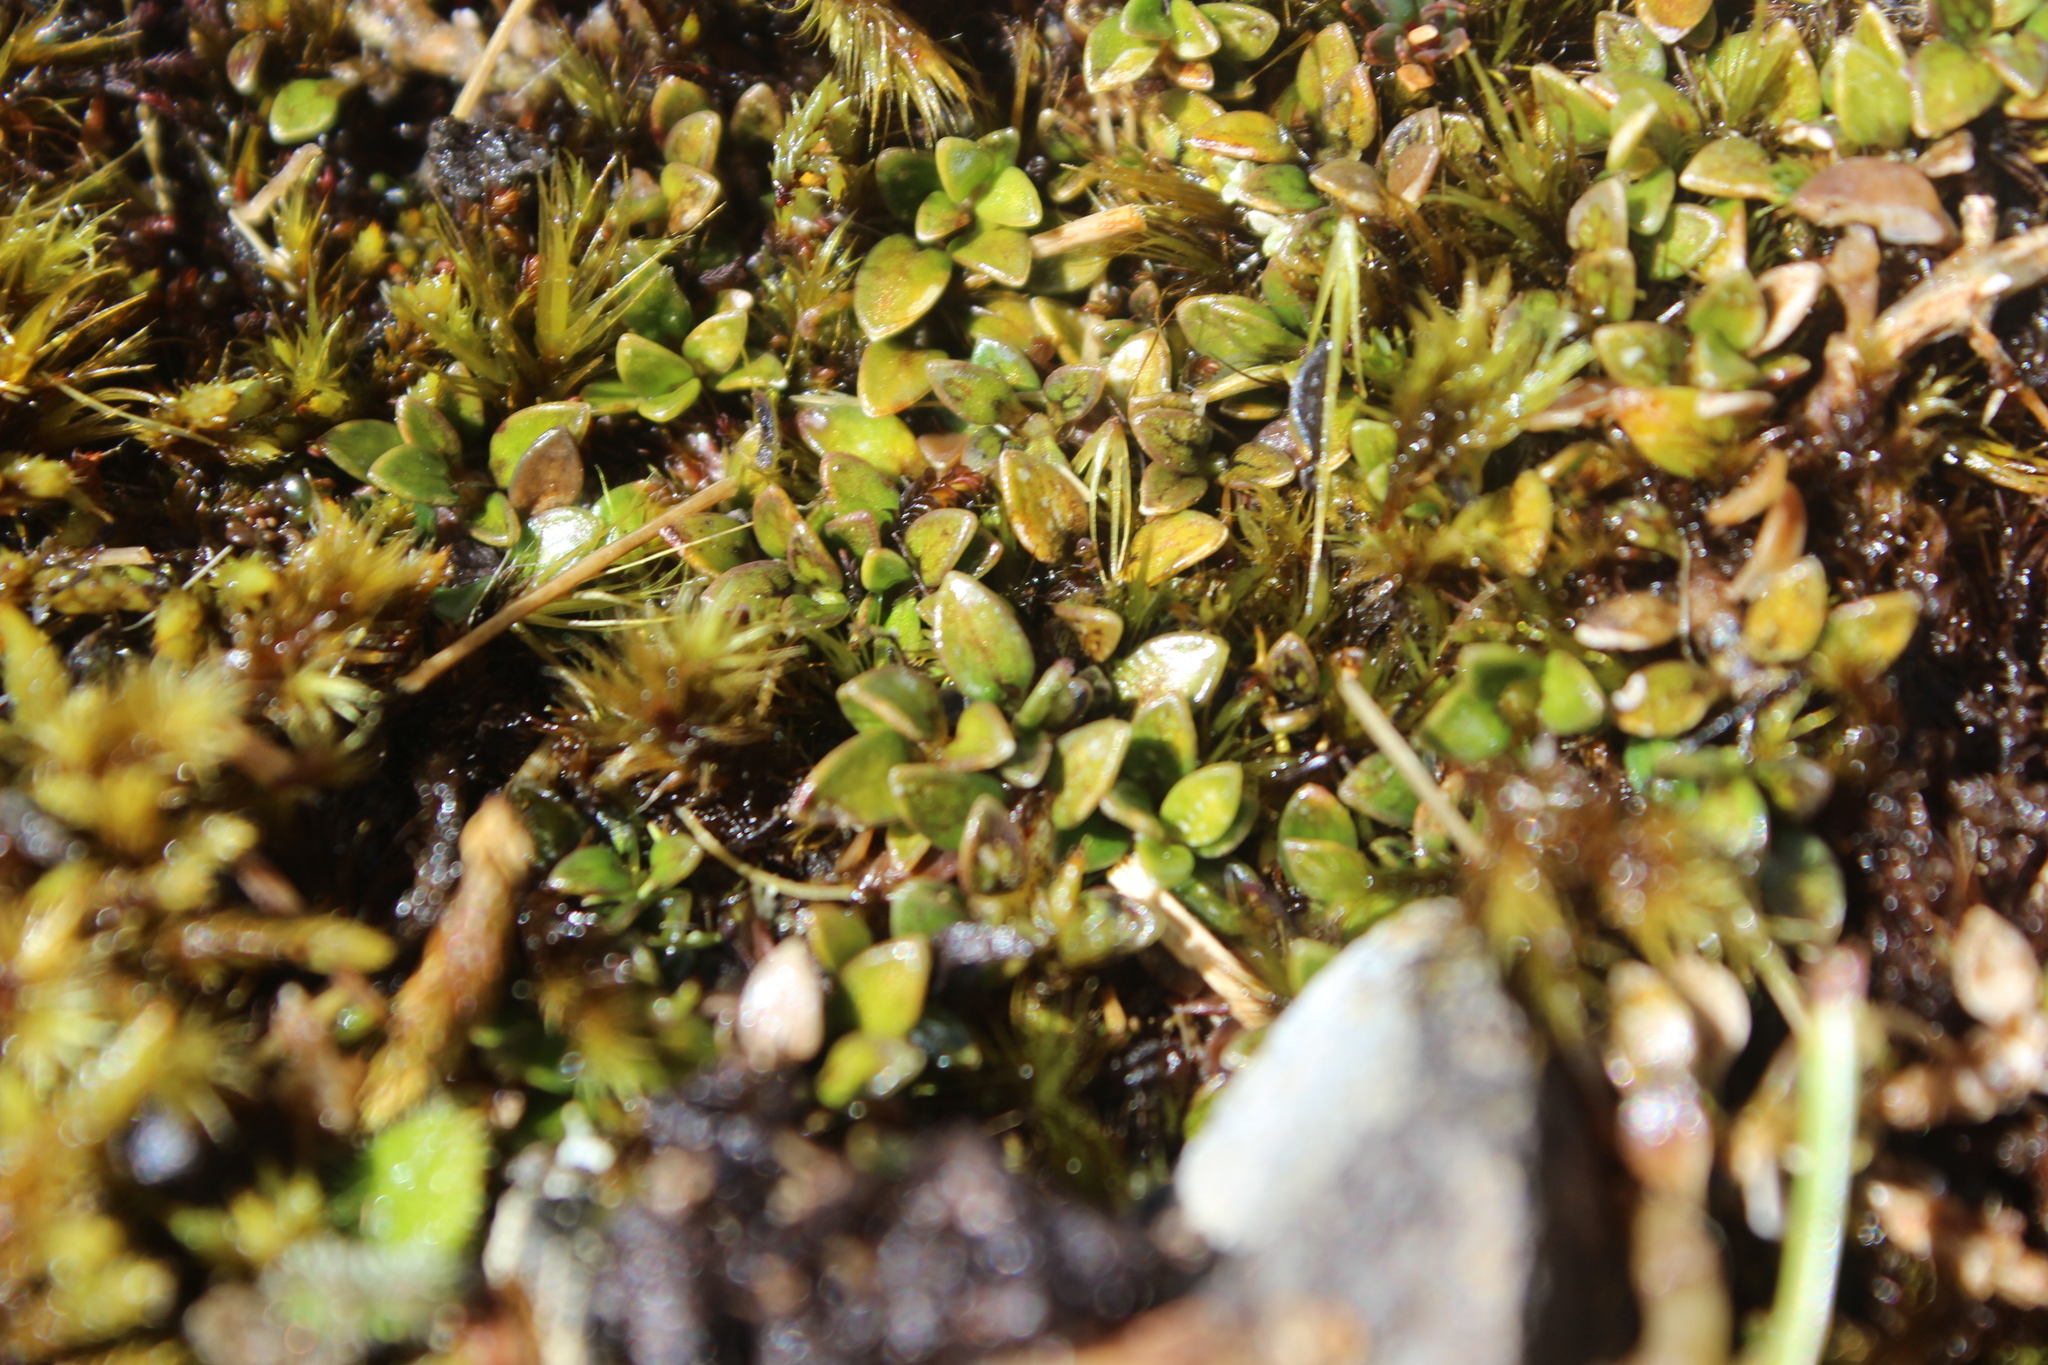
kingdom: Plantae
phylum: Tracheophyta
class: Magnoliopsida
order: Gentianales
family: Rubiaceae
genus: Coprosma
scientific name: Coprosma perpusilla
